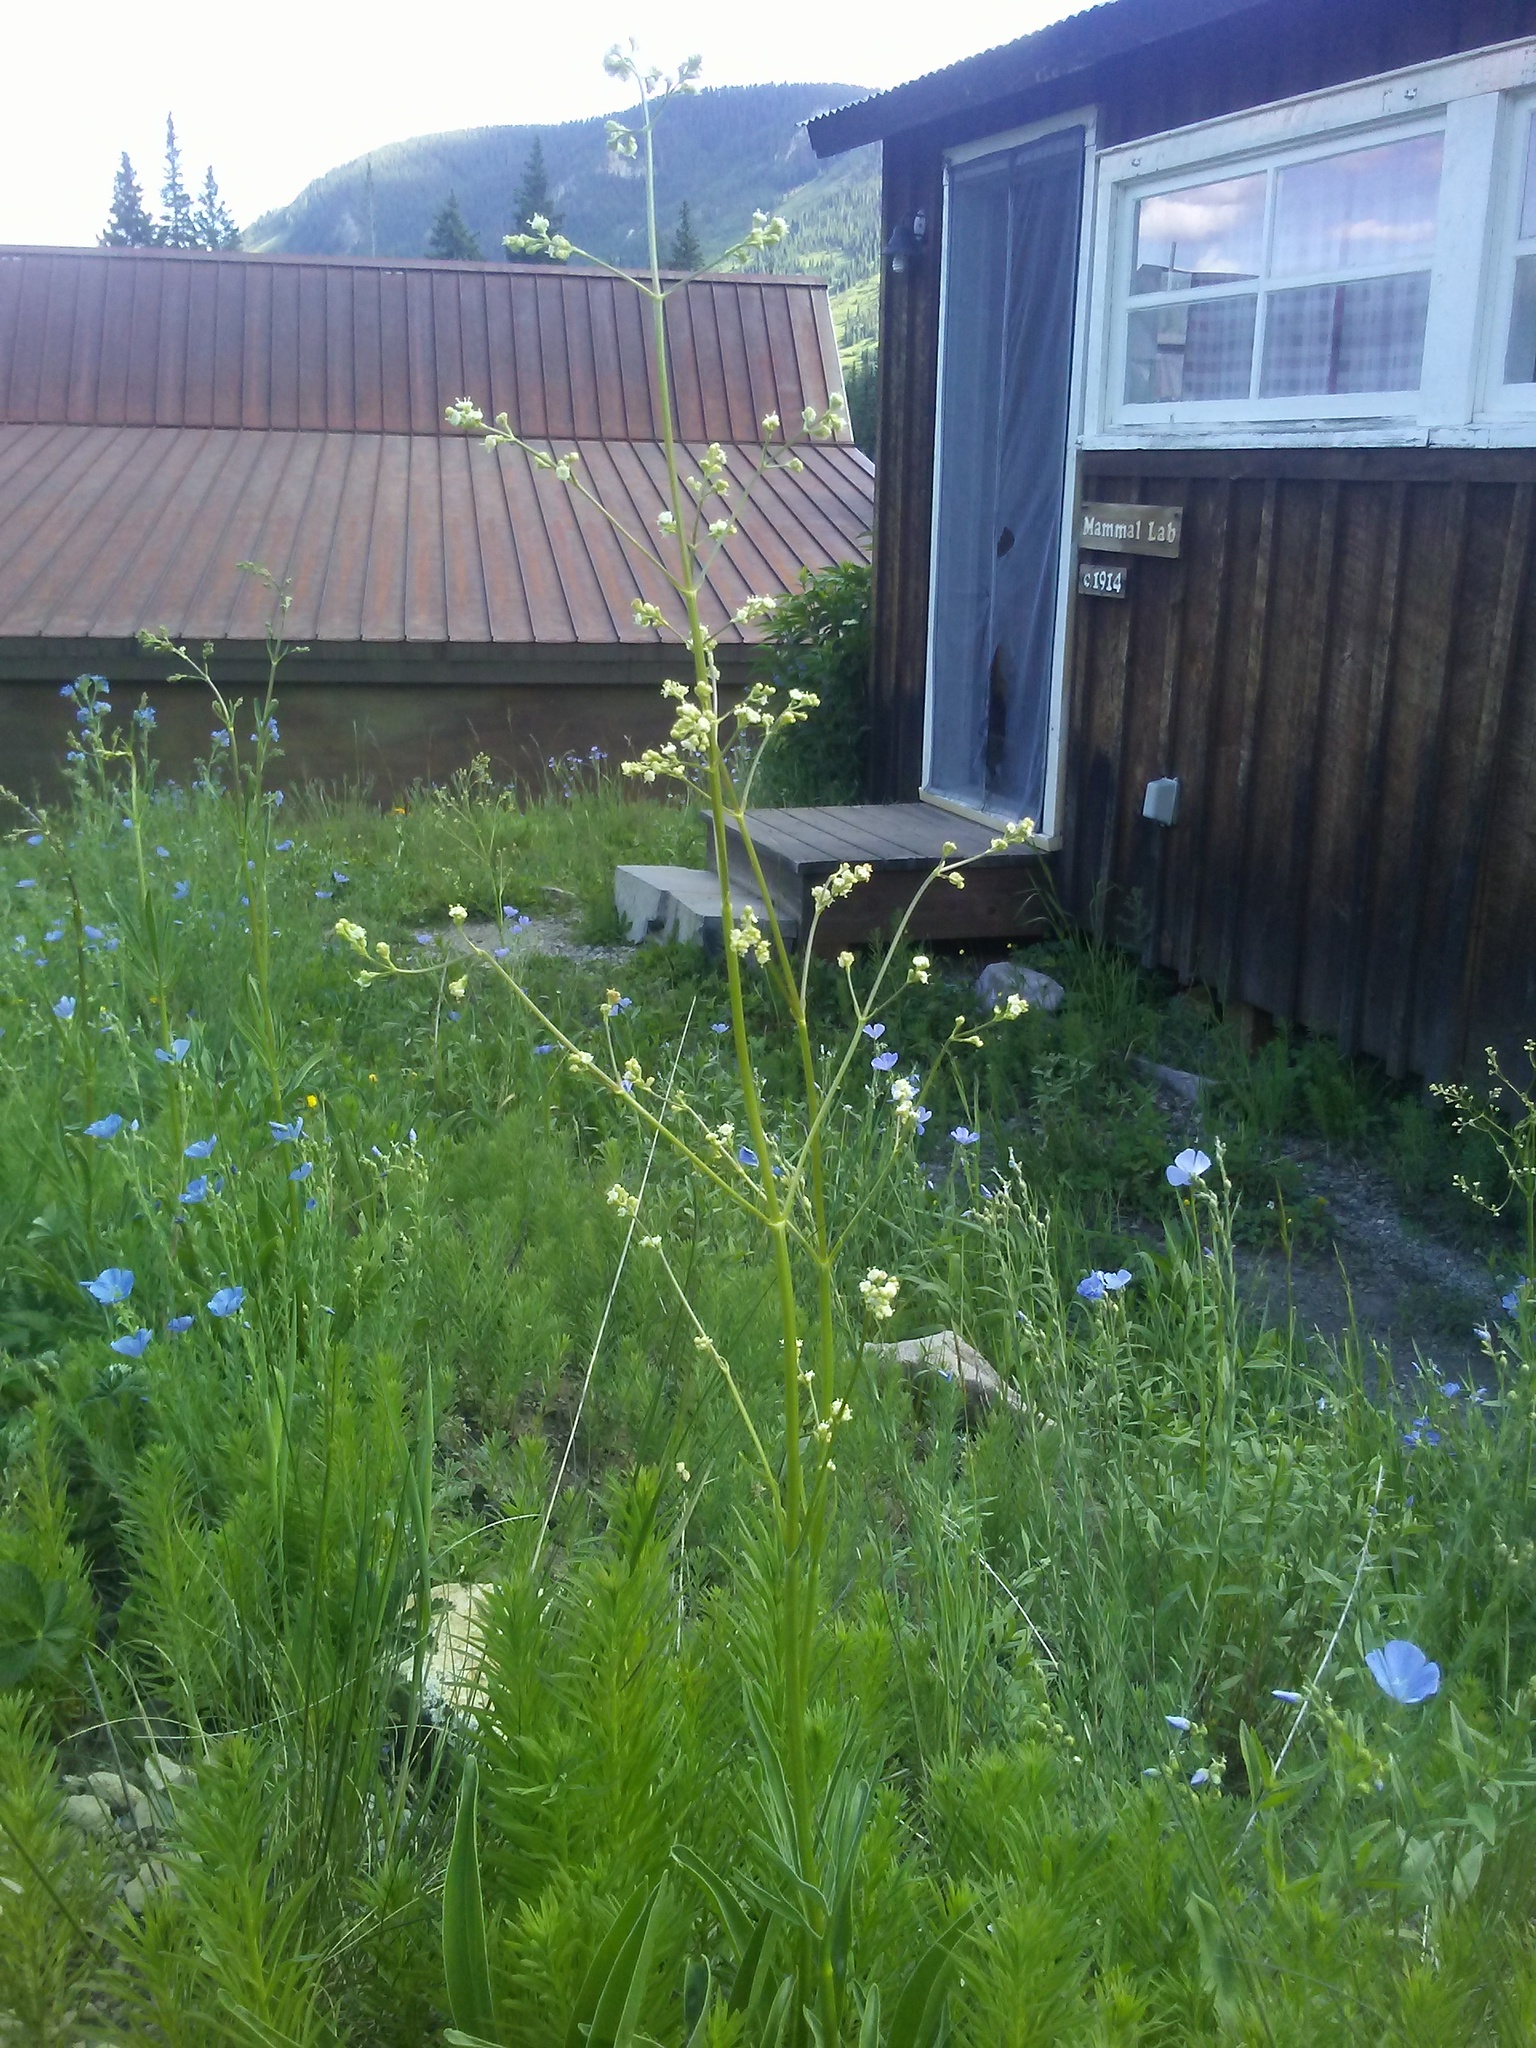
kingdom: Plantae
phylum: Tracheophyta
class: Magnoliopsida
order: Dipsacales
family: Caprifoliaceae
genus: Valeriana
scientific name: Valeriana edulis
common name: Taproot valerian
